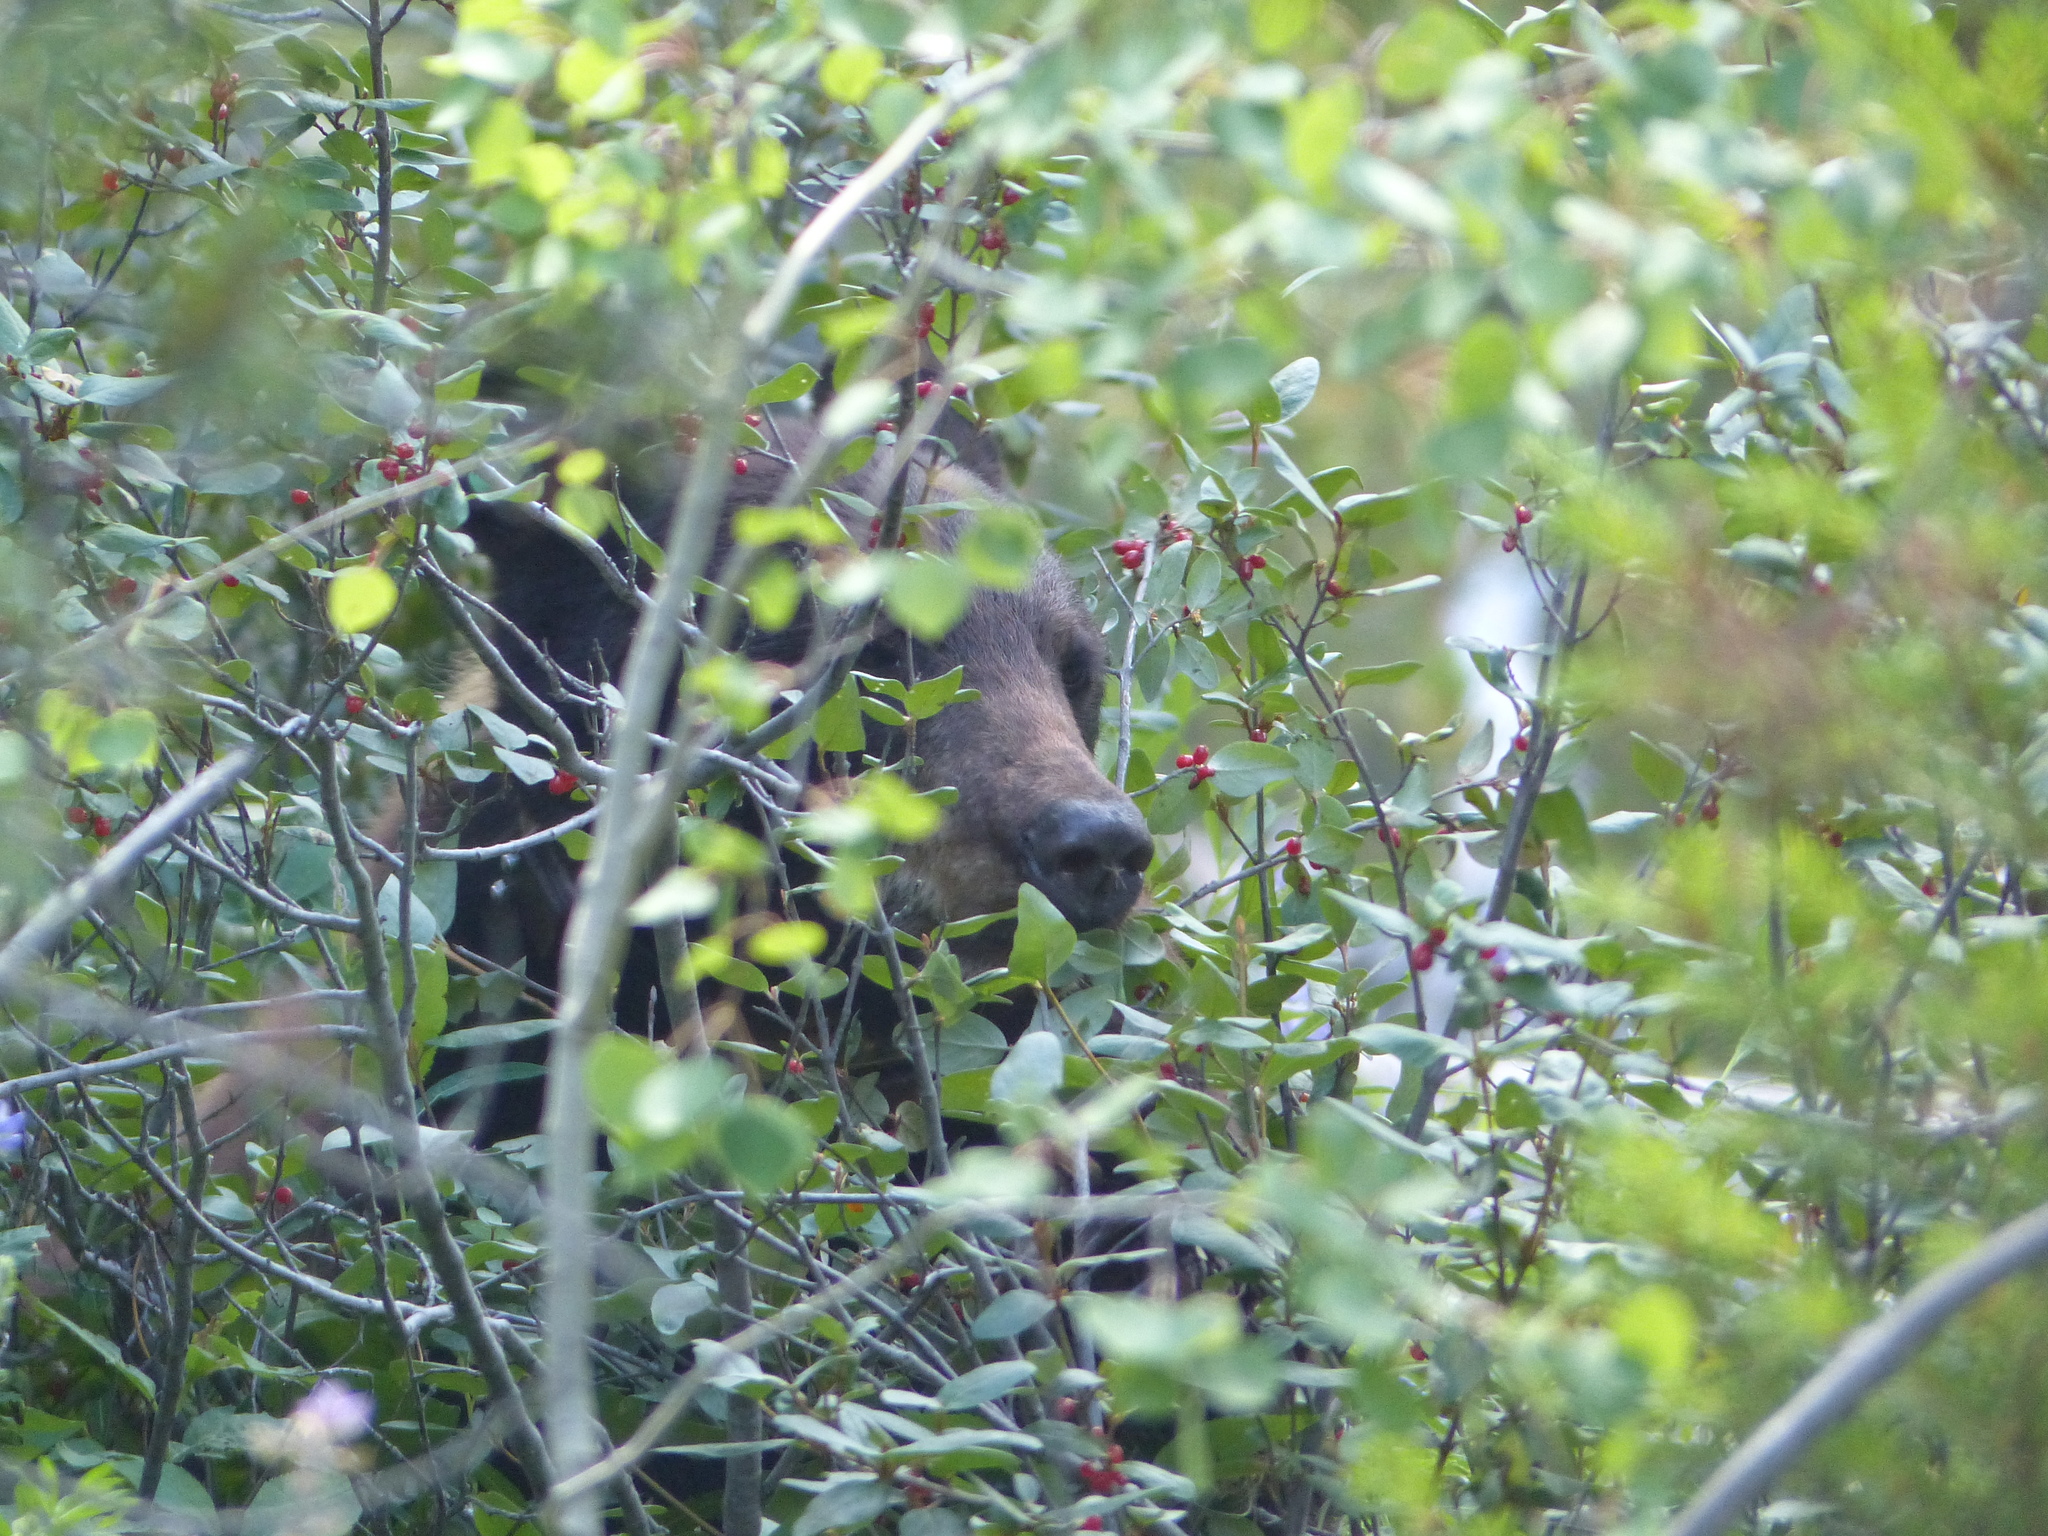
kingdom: Animalia
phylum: Chordata
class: Mammalia
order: Carnivora
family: Ursidae
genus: Ursus
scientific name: Ursus americanus
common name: American black bear
